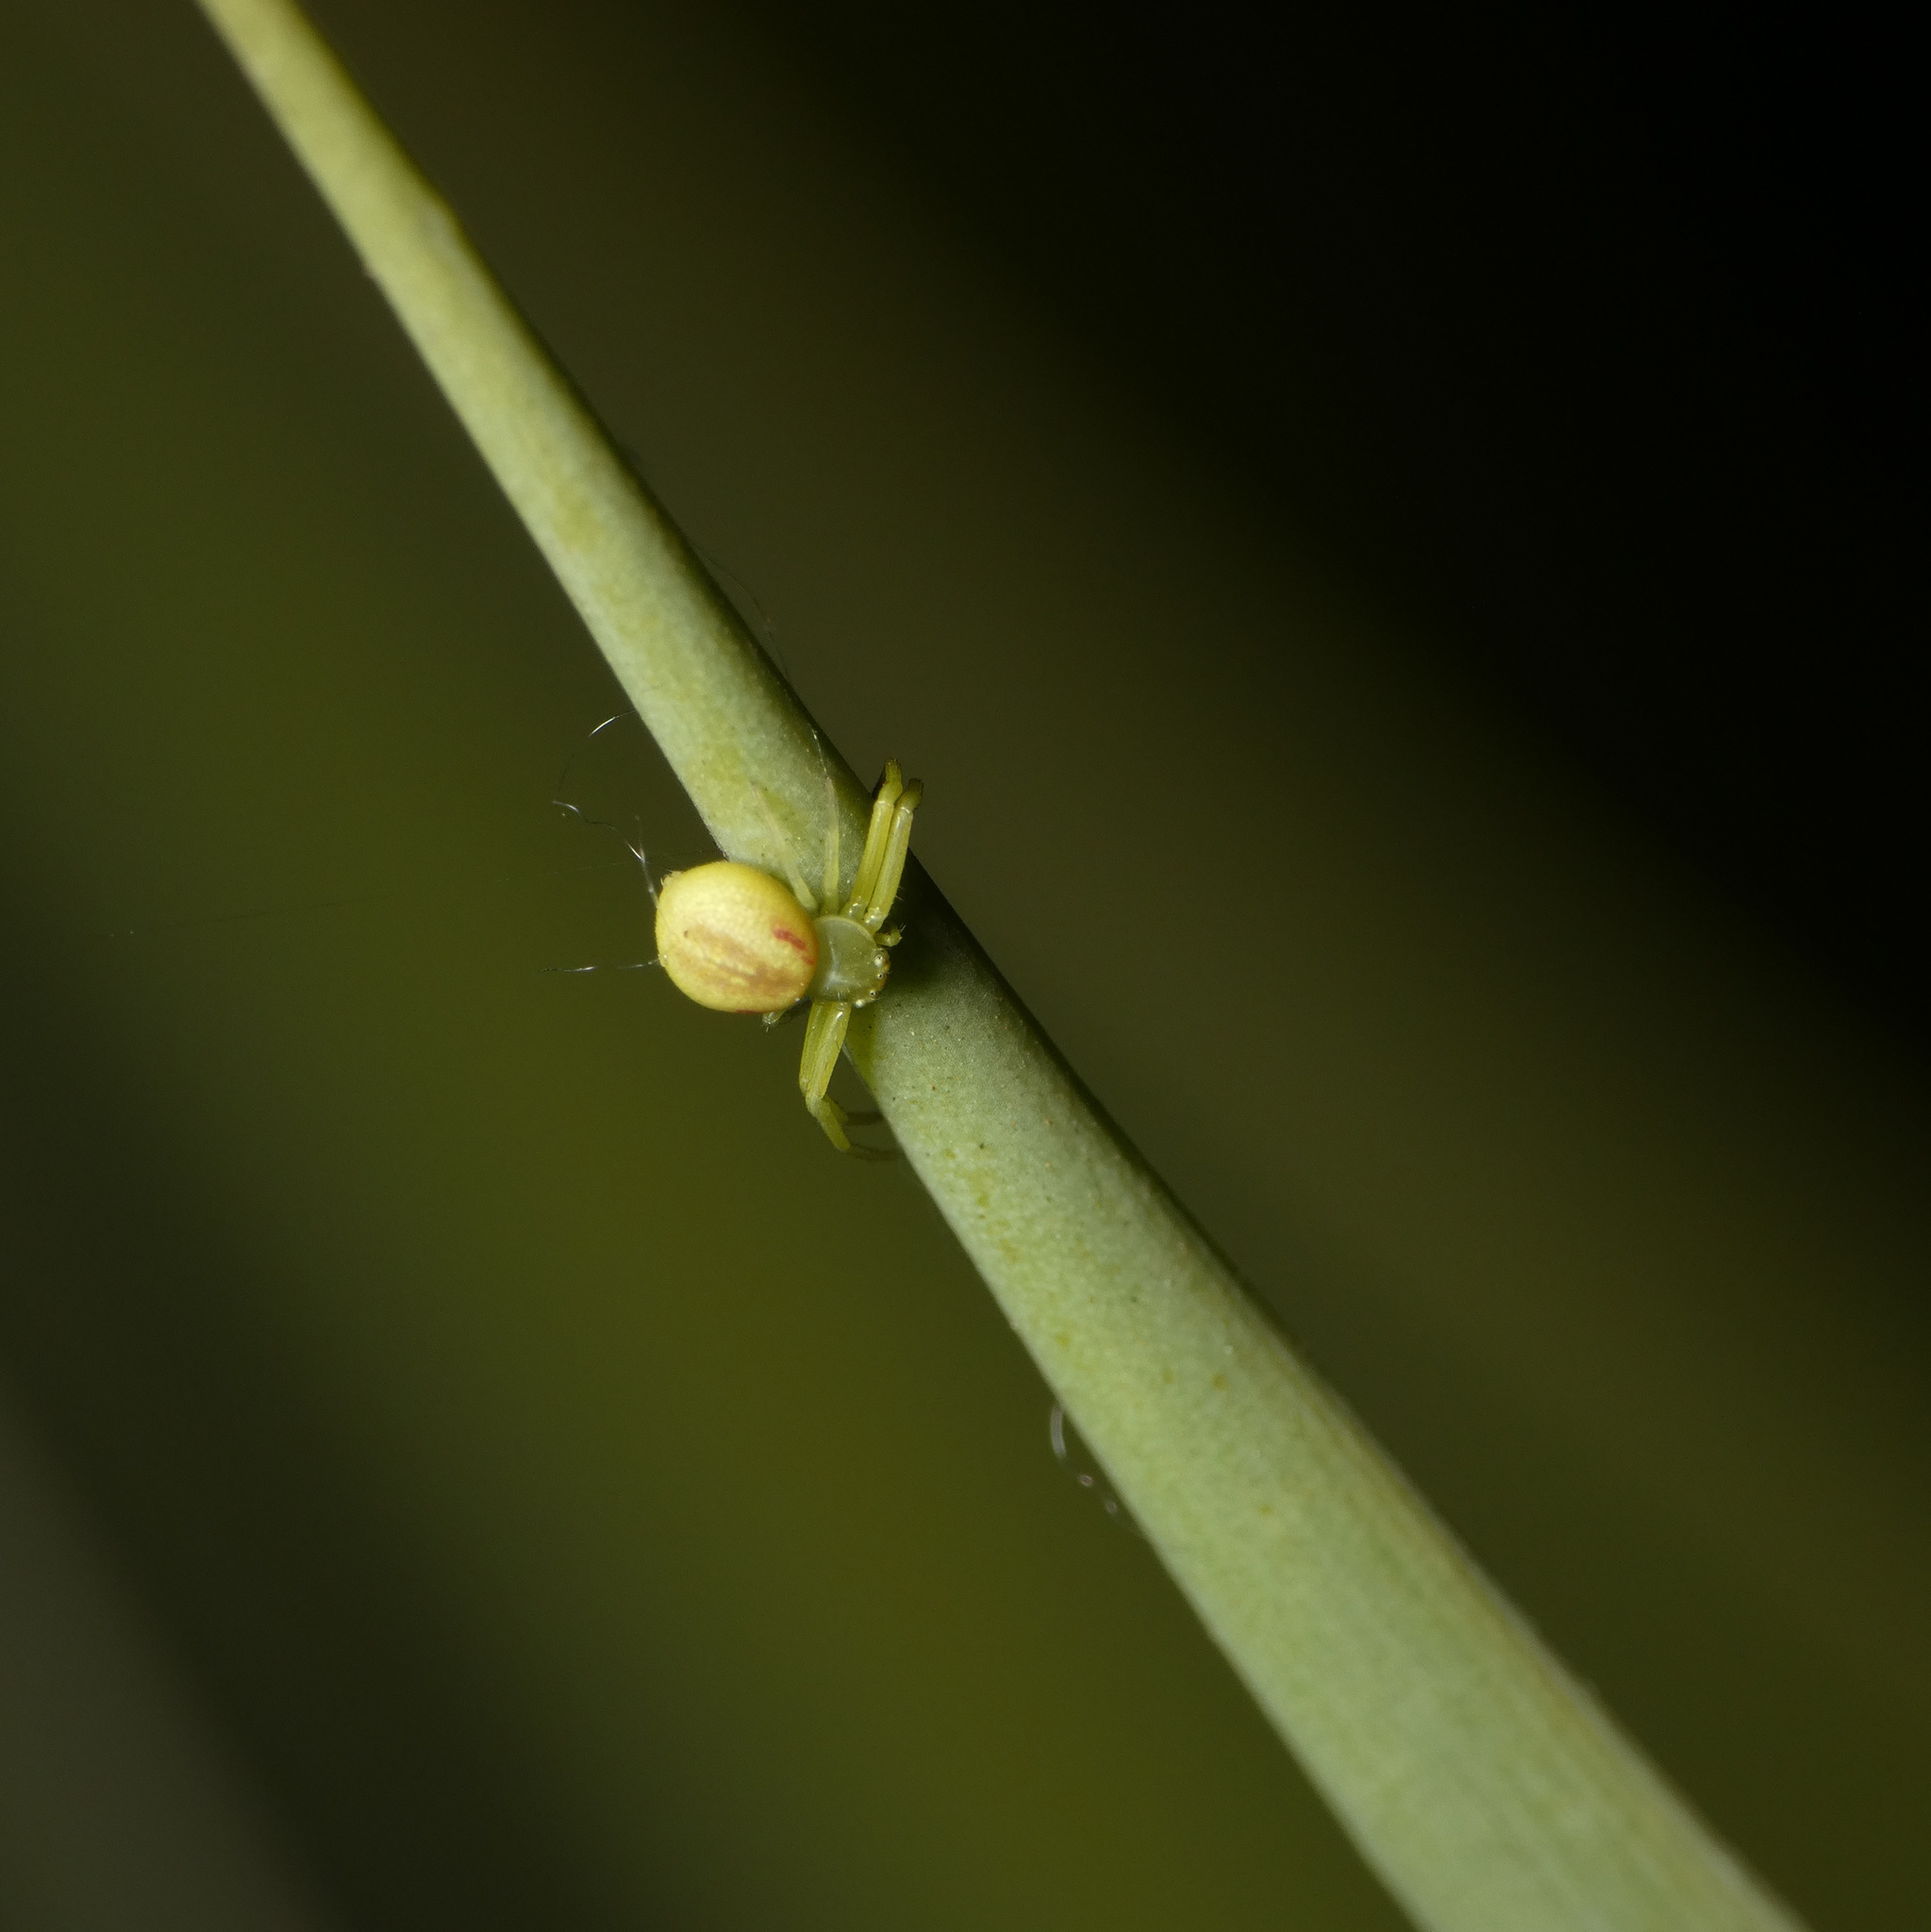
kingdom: Animalia
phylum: Arthropoda
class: Arachnida
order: Araneae
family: Thomisidae
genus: Misumenops
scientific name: Misumenops rubrodecoratus
